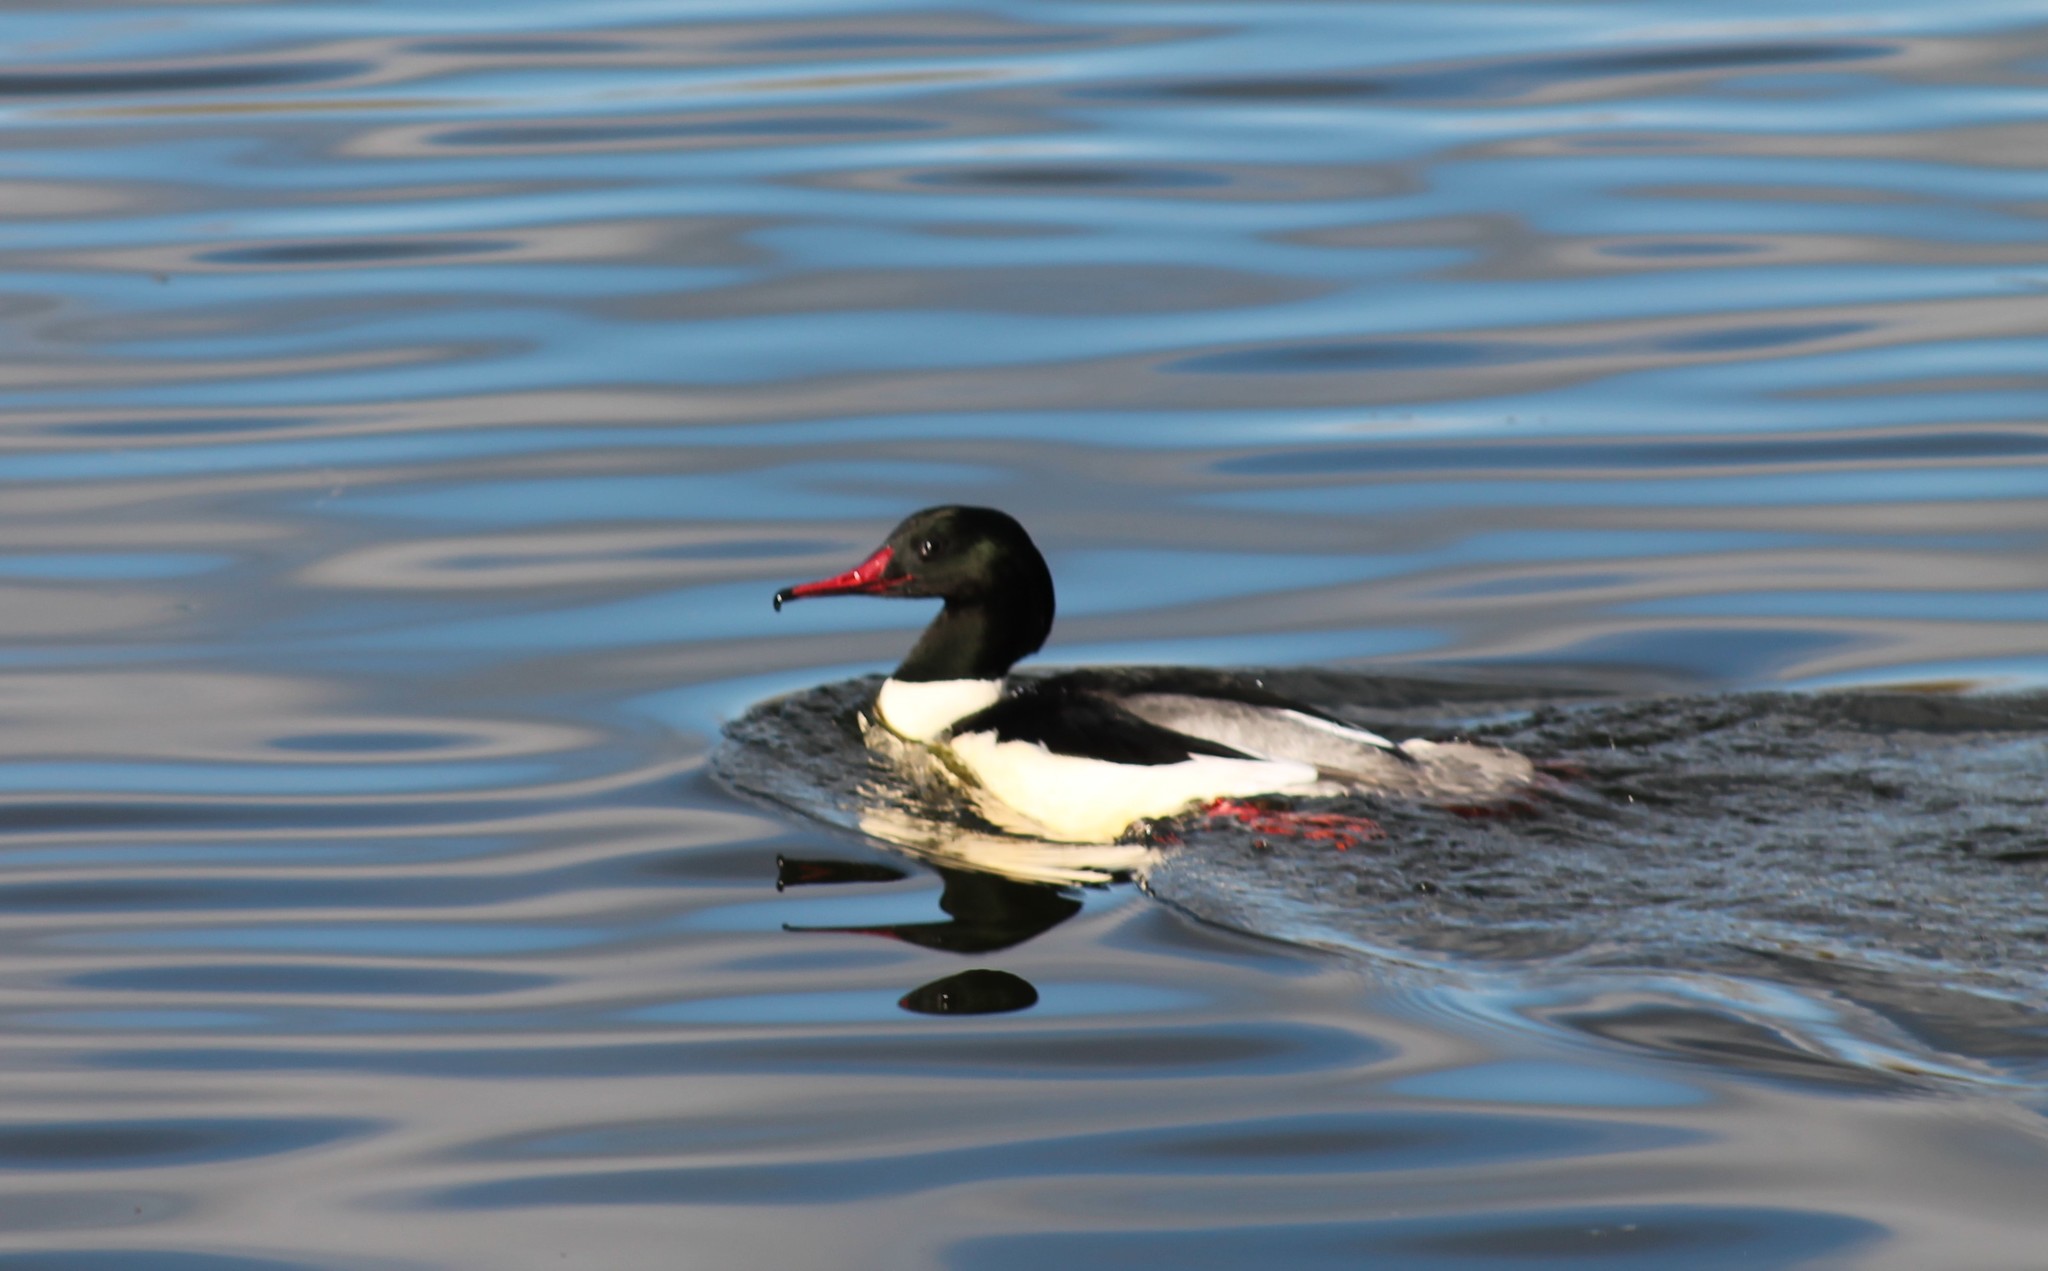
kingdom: Animalia
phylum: Chordata
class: Aves
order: Anseriformes
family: Anatidae
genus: Mergus
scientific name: Mergus merganser
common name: Common merganser
